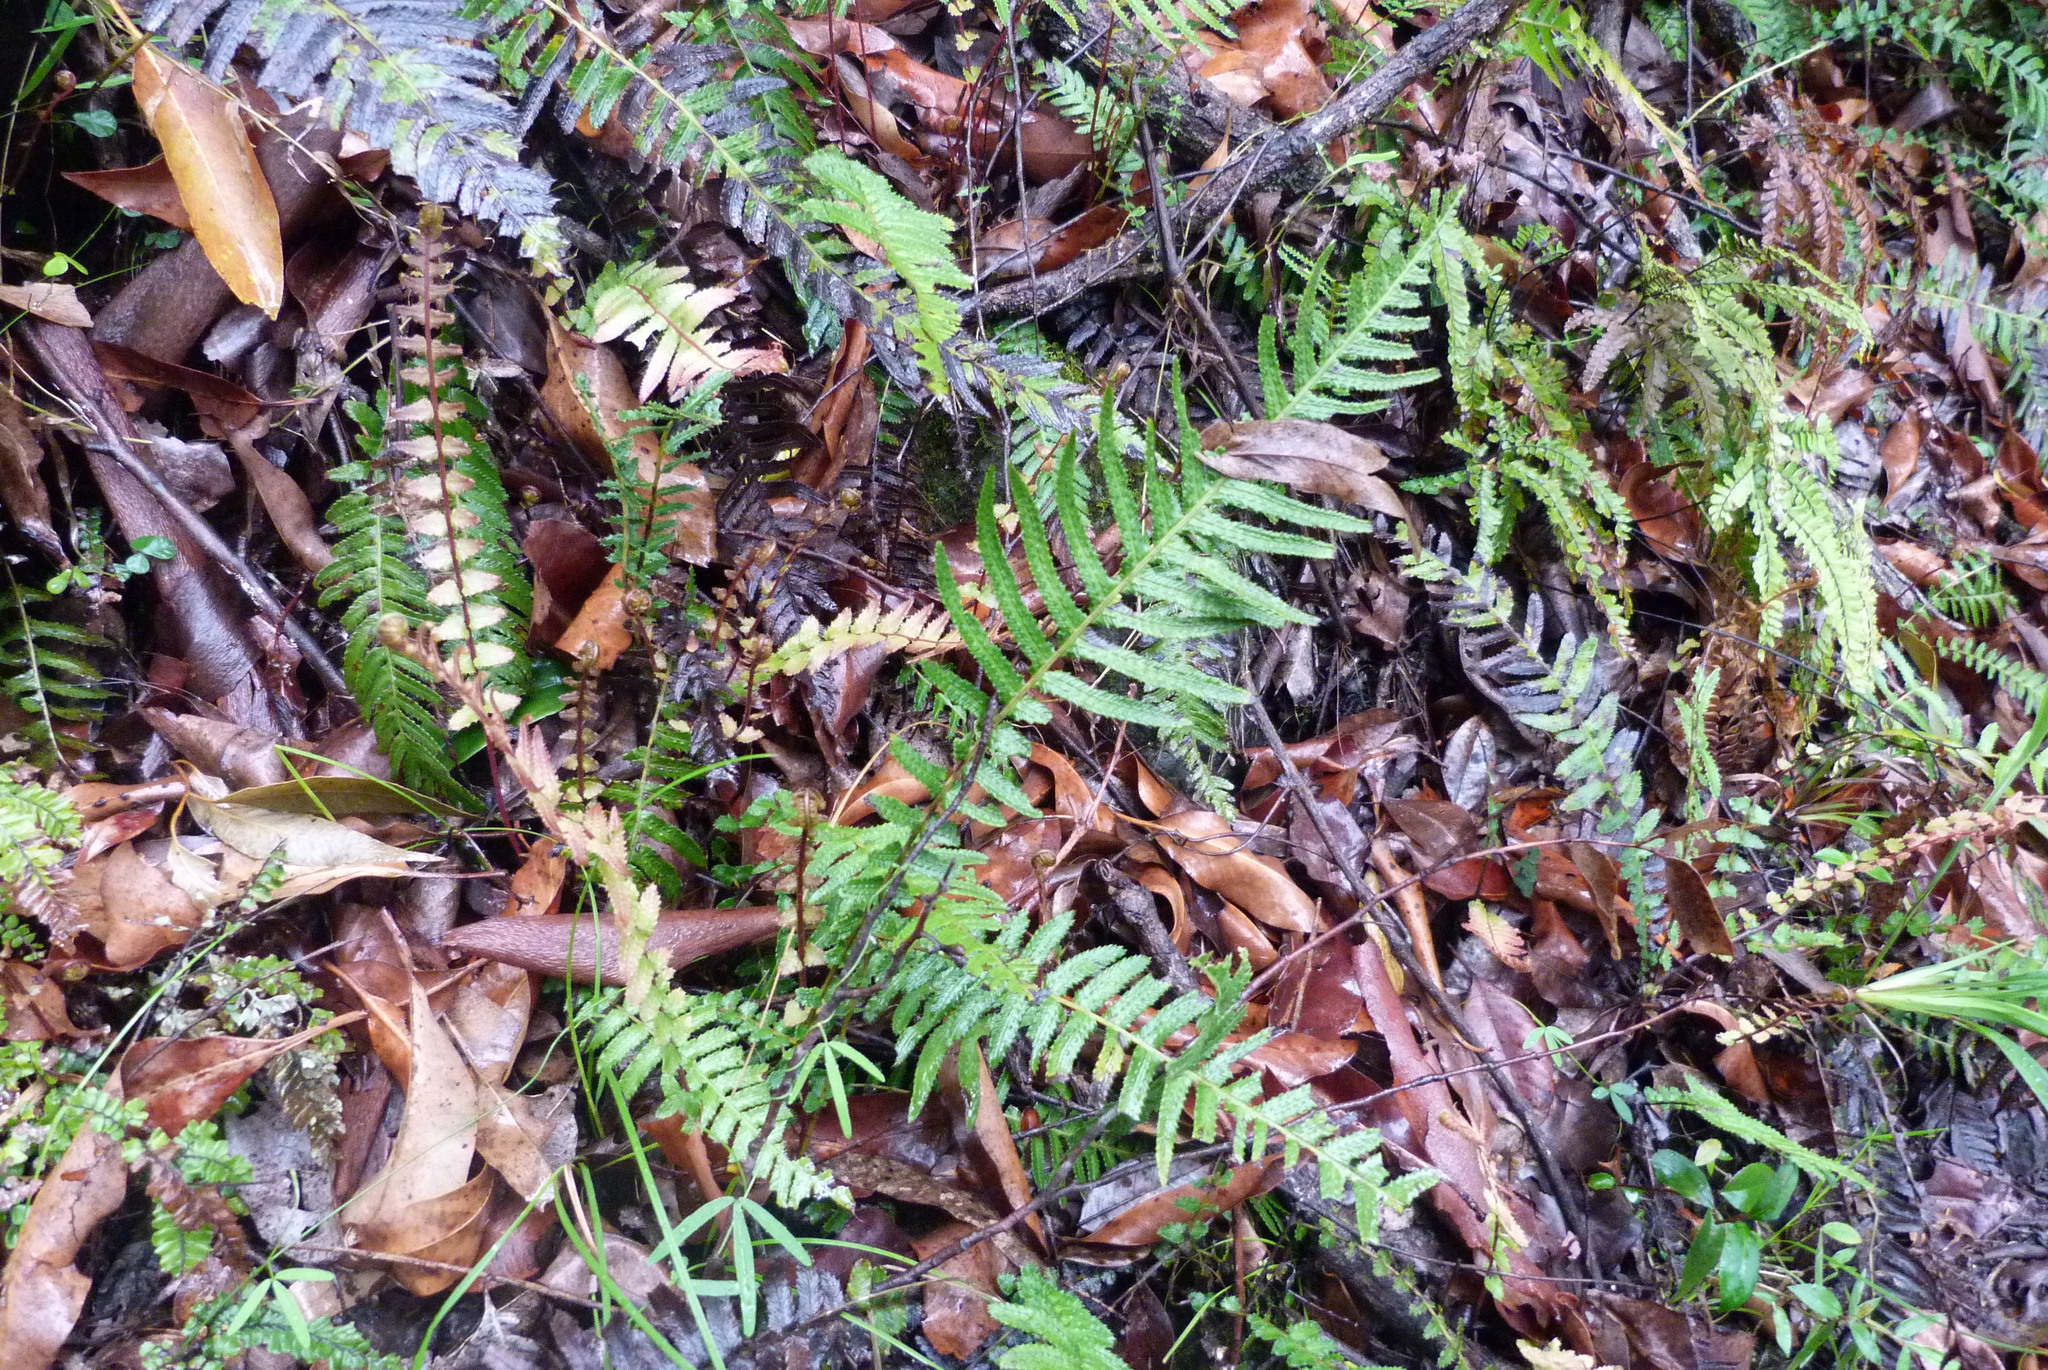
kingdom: Plantae
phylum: Tracheophyta
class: Polypodiopsida
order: Polypodiales
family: Blechnaceae
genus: Doodia
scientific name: Doodia aspera
